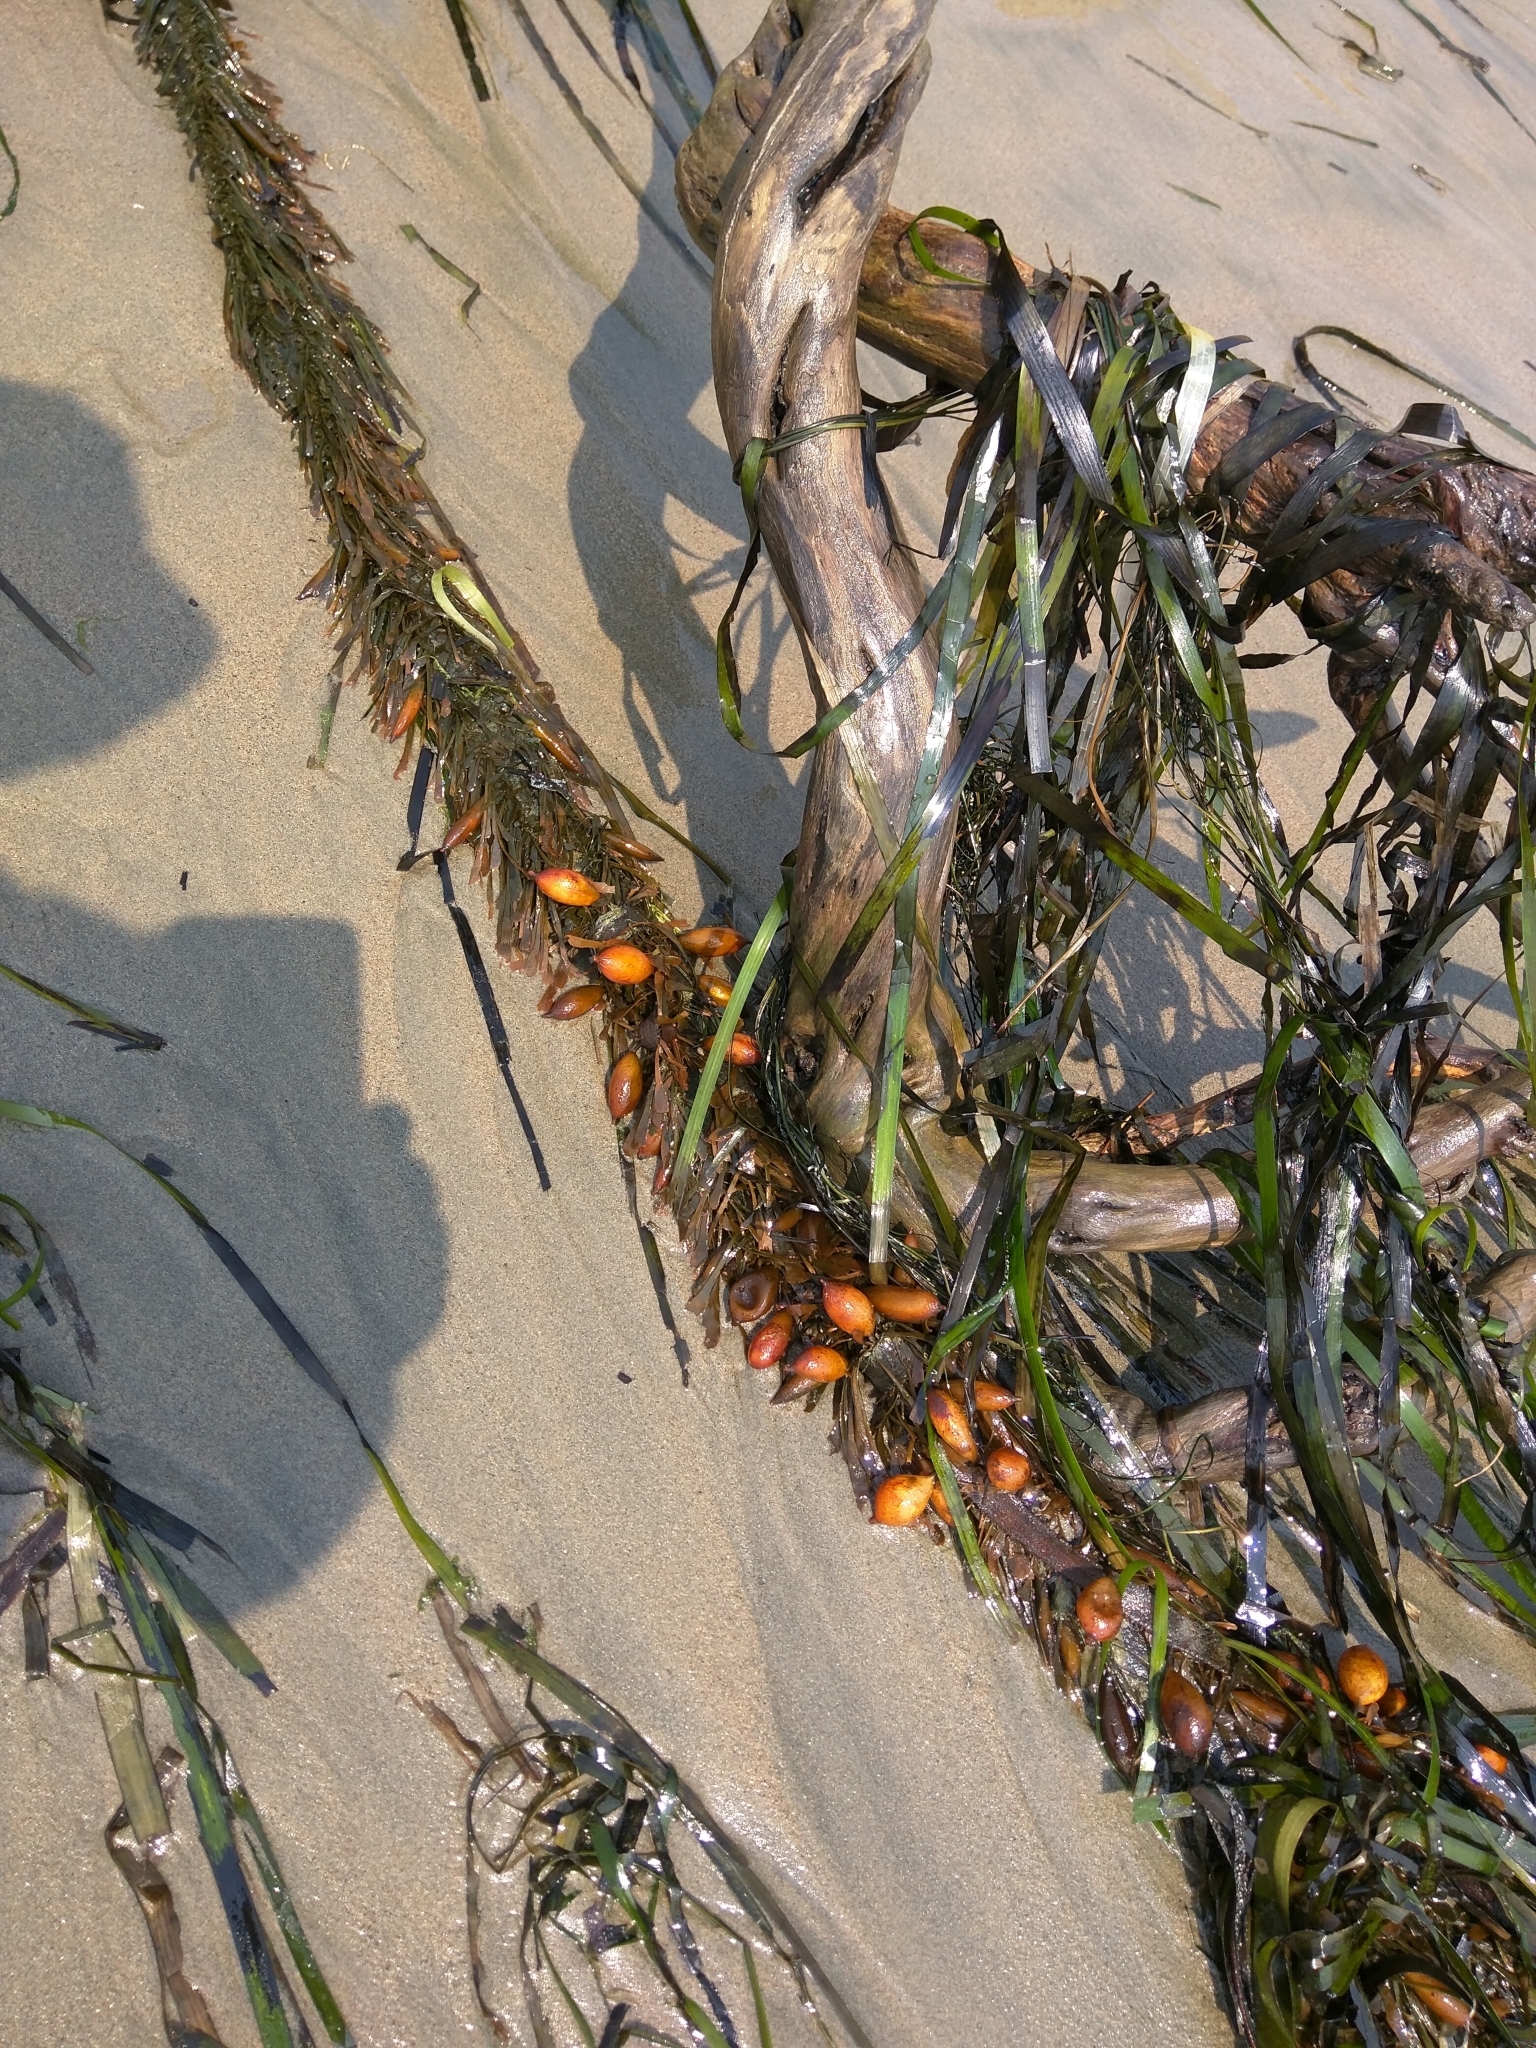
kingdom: Chromista
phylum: Ochrophyta
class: Phaeophyceae
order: Laminariales
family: Lessoniaceae
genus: Egregia
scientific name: Egregia menziesii
